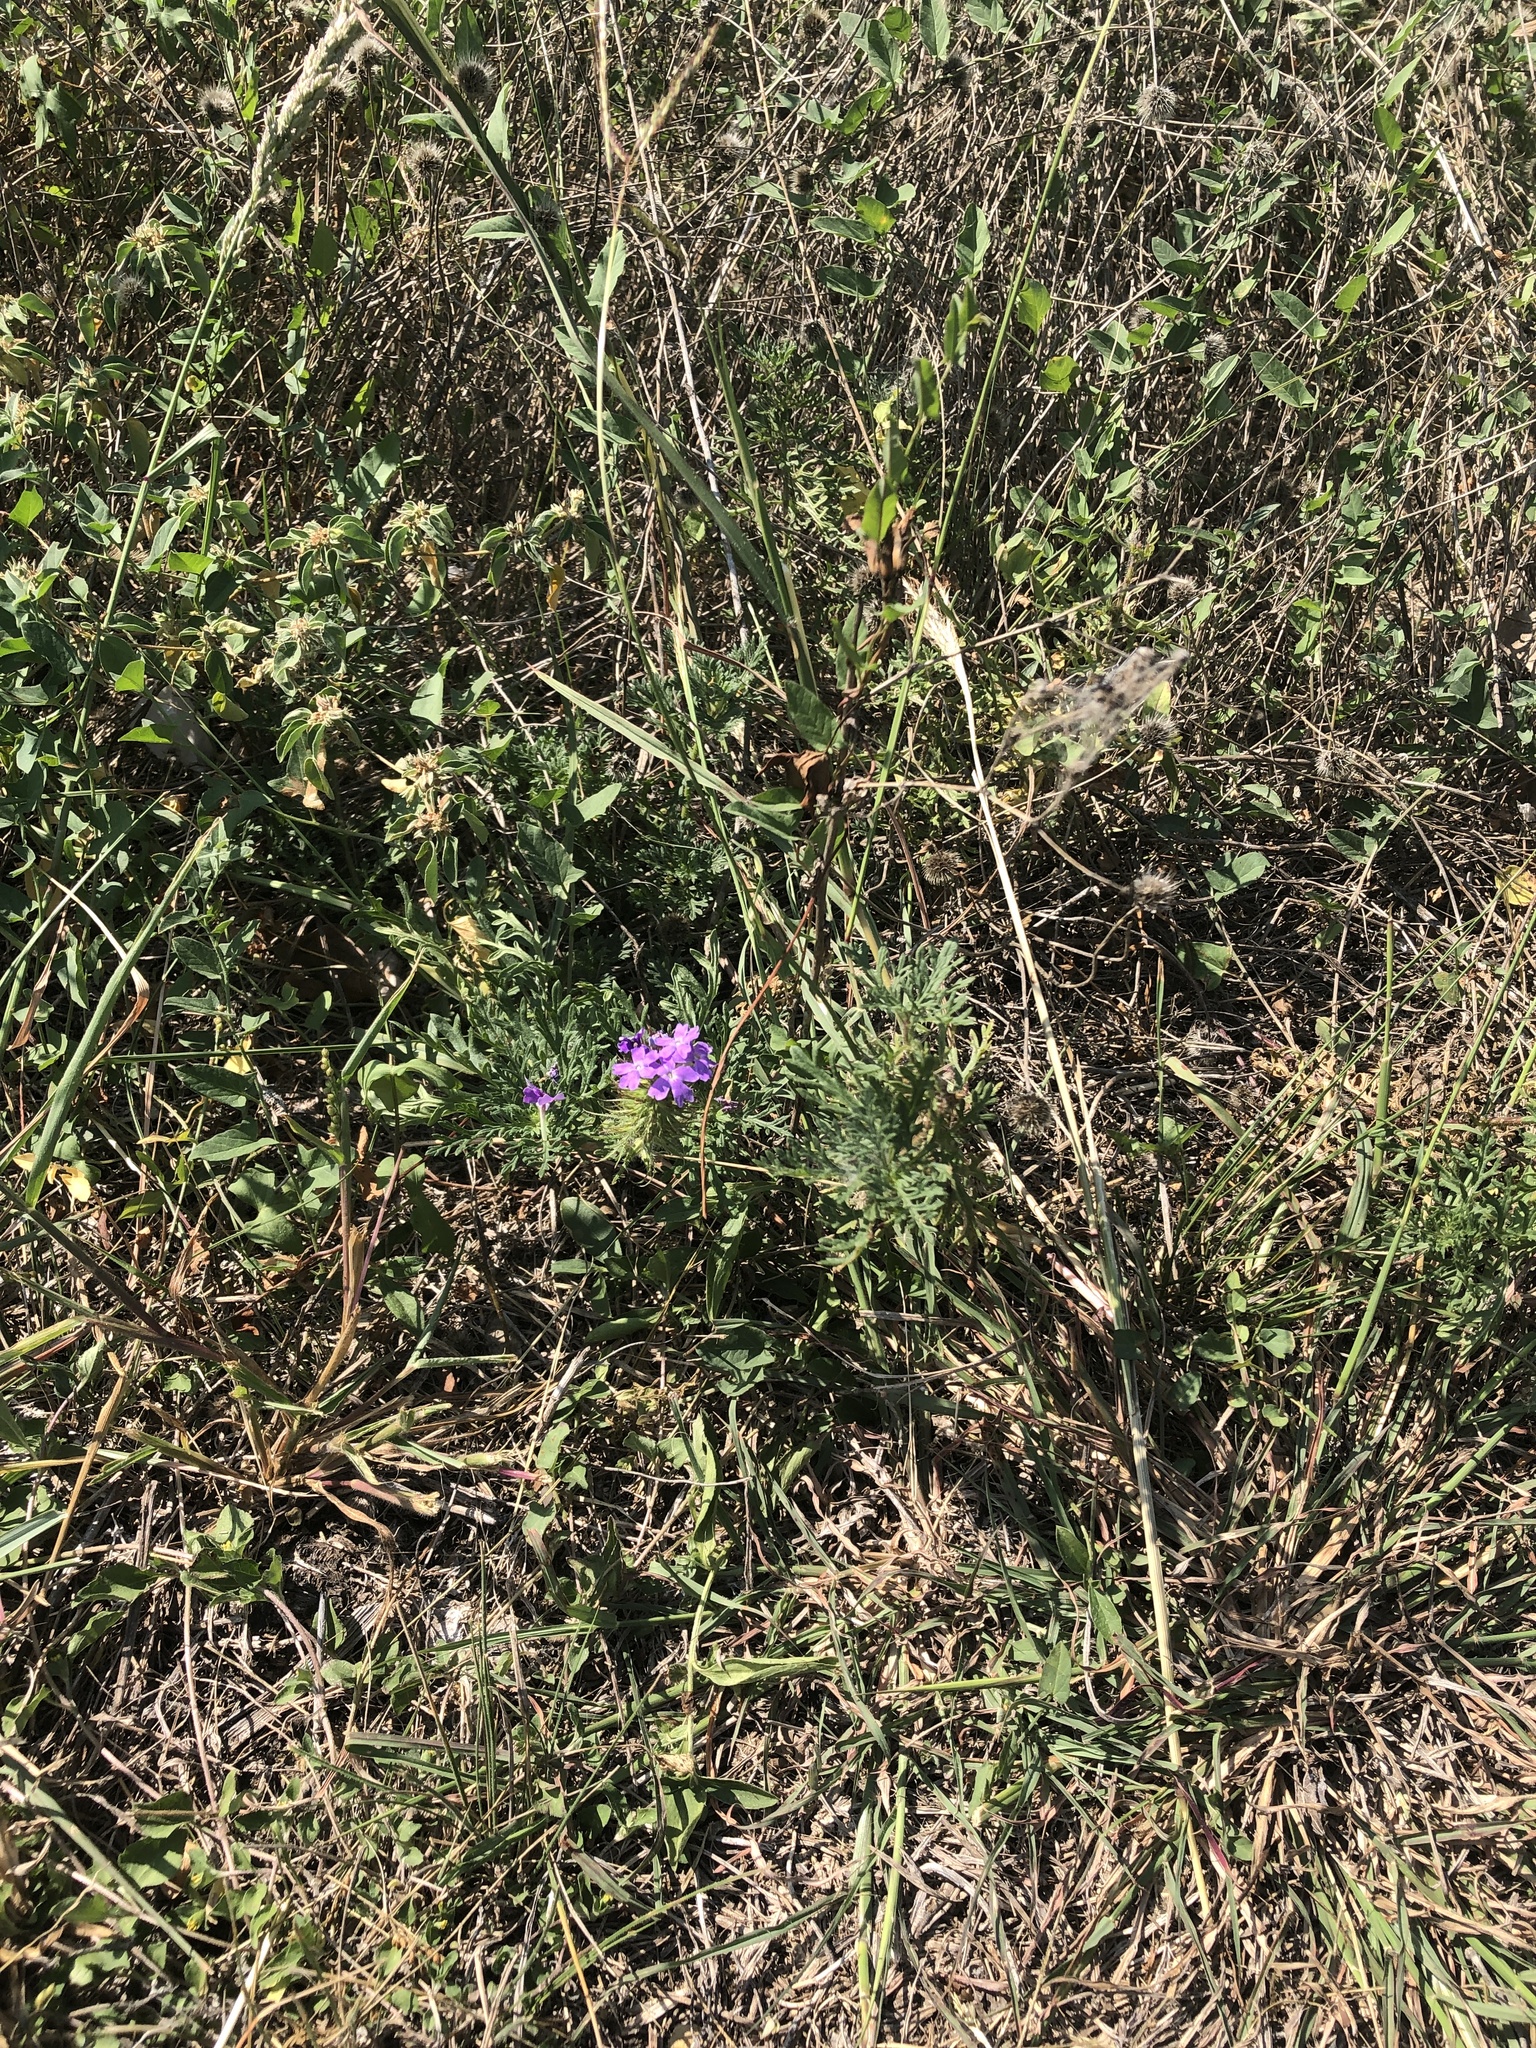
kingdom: Plantae
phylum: Tracheophyta
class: Magnoliopsida
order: Lamiales
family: Verbenaceae
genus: Verbena
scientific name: Verbena bipinnatifida
